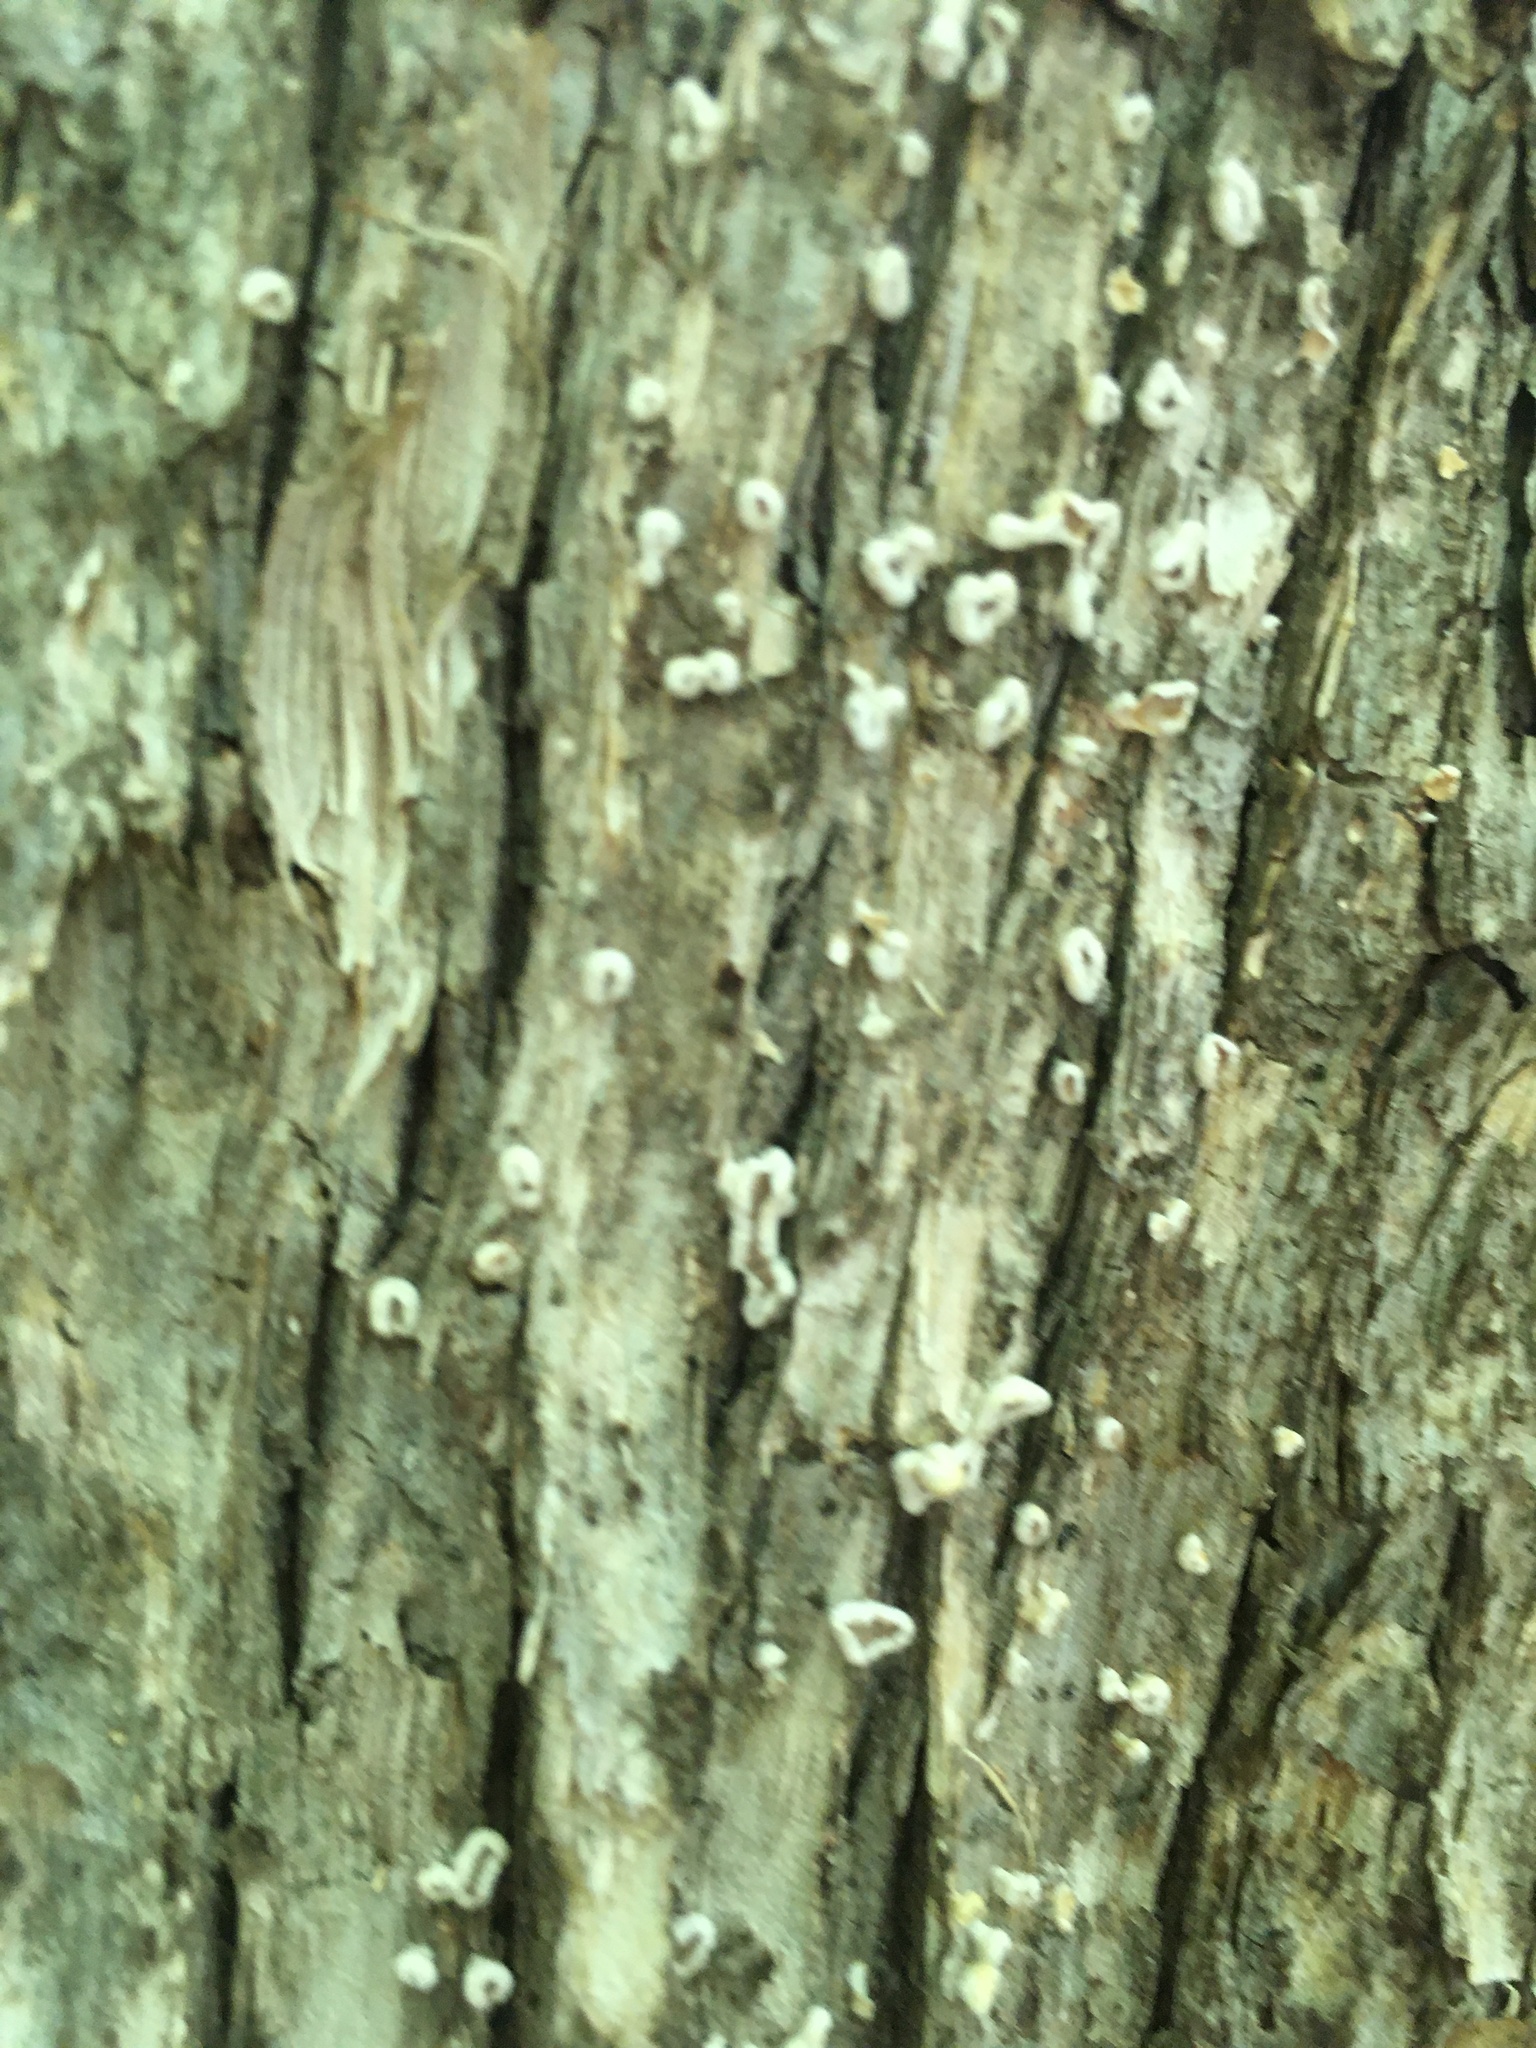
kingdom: Fungi
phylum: Basidiomycota
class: Agaricomycetes
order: Russulales
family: Stereaceae
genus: Acanthophysium
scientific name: Acanthophysium oakesii
